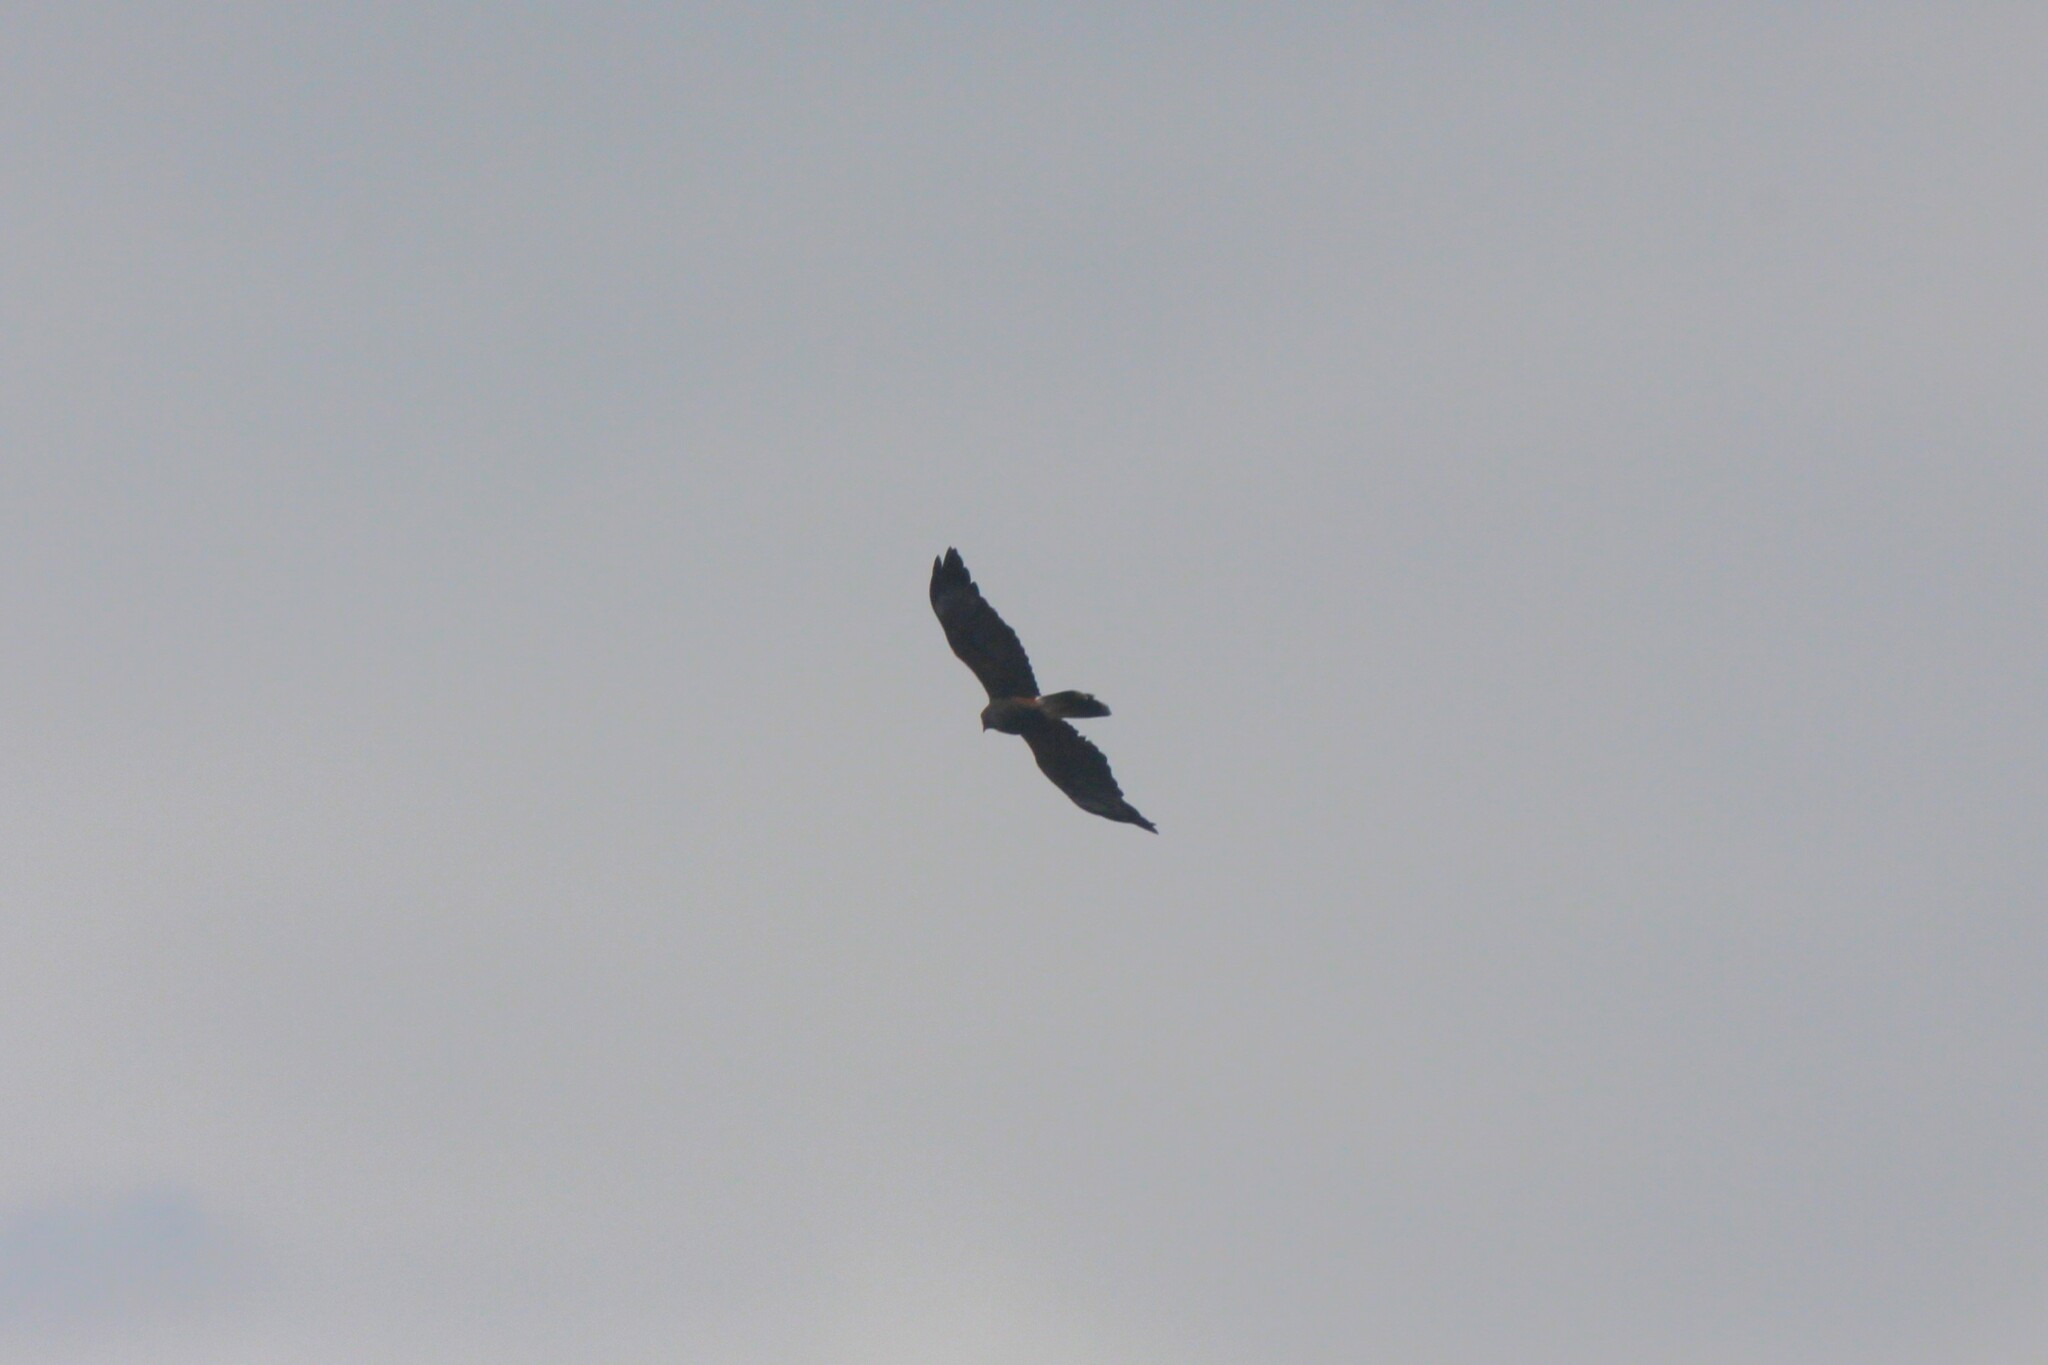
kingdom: Animalia
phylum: Chordata
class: Aves
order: Accipitriformes
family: Accipitridae
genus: Parabuteo
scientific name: Parabuteo unicinctus
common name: Harris's hawk
